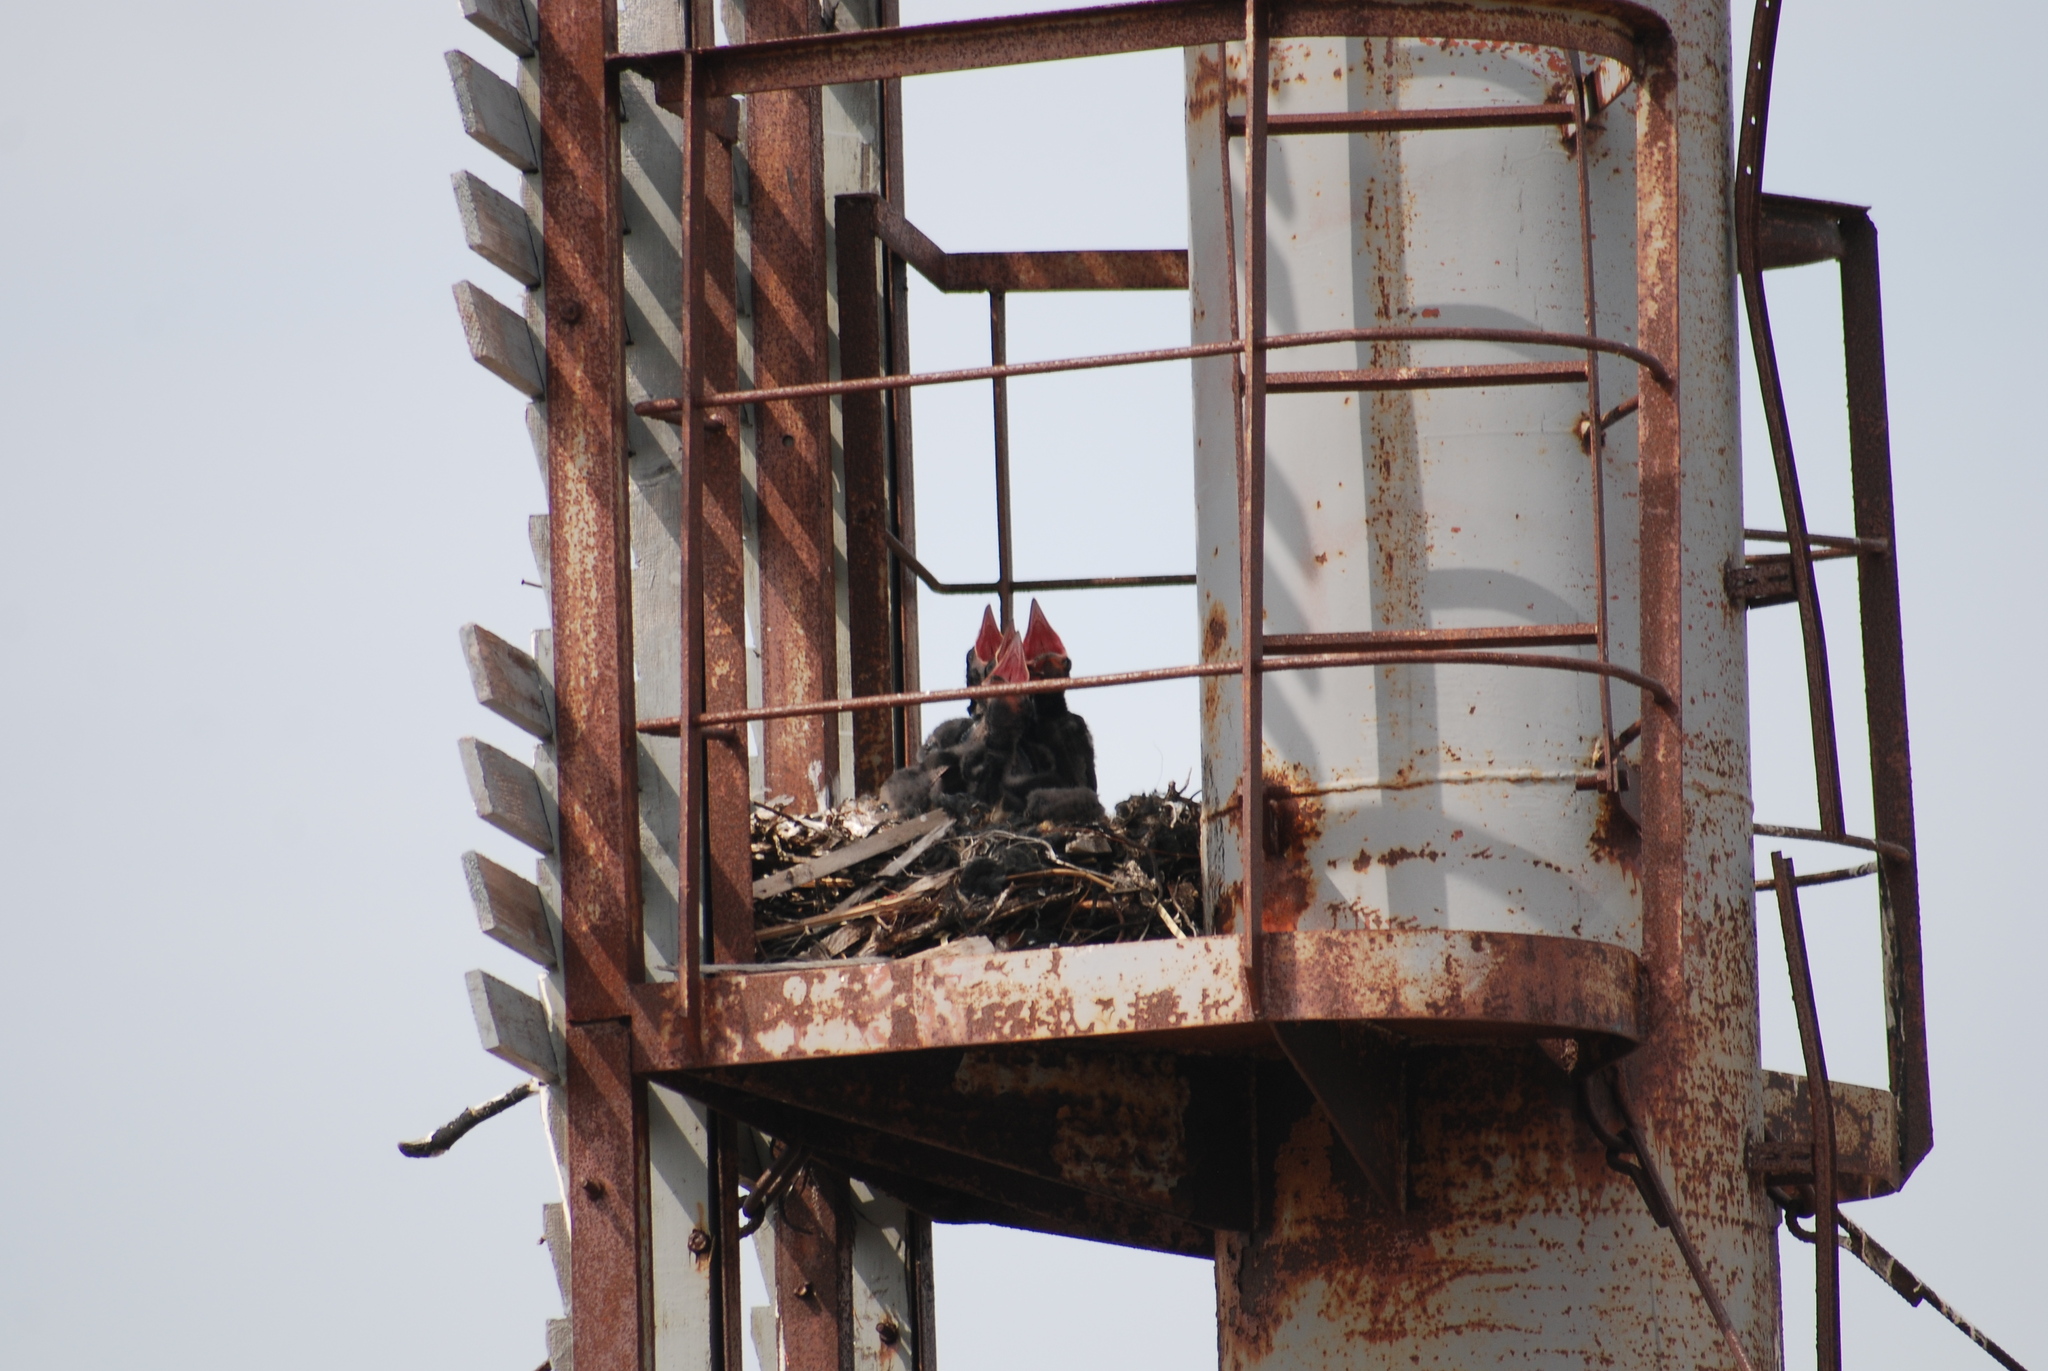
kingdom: Animalia
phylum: Chordata
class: Aves
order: Passeriformes
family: Corvidae
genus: Corvus
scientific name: Corvus corax
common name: Common raven
